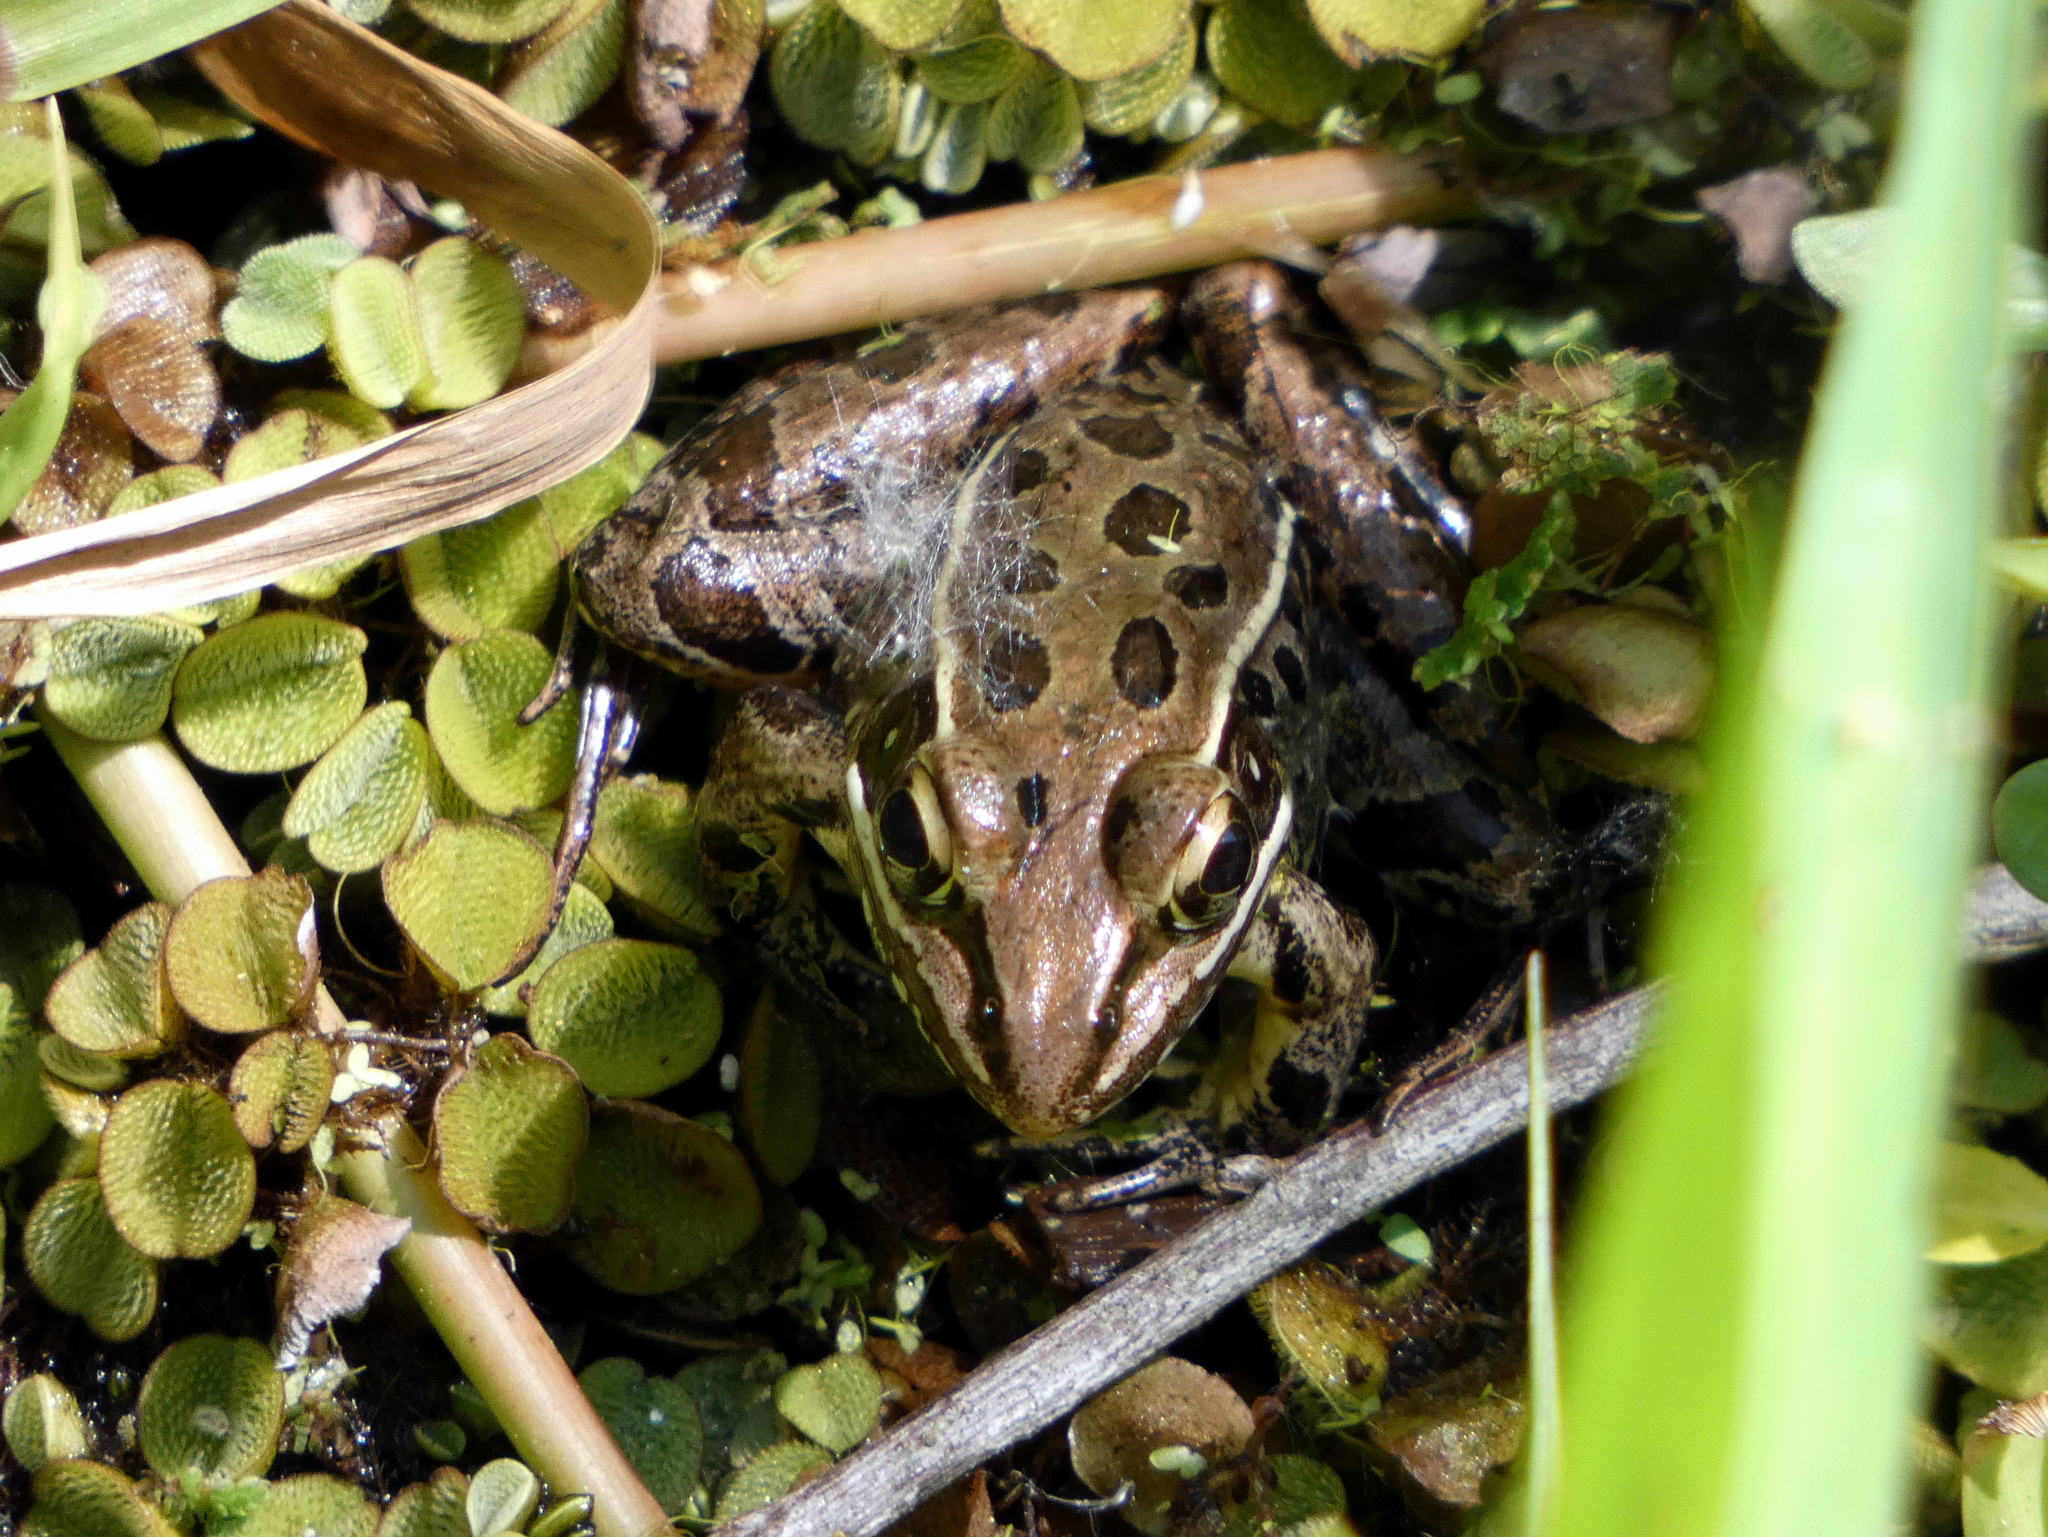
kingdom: Animalia
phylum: Chordata
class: Amphibia
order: Anura
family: Ranidae
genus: Lithobates
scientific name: Lithobates sphenocephalus
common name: Southern leopard frog
